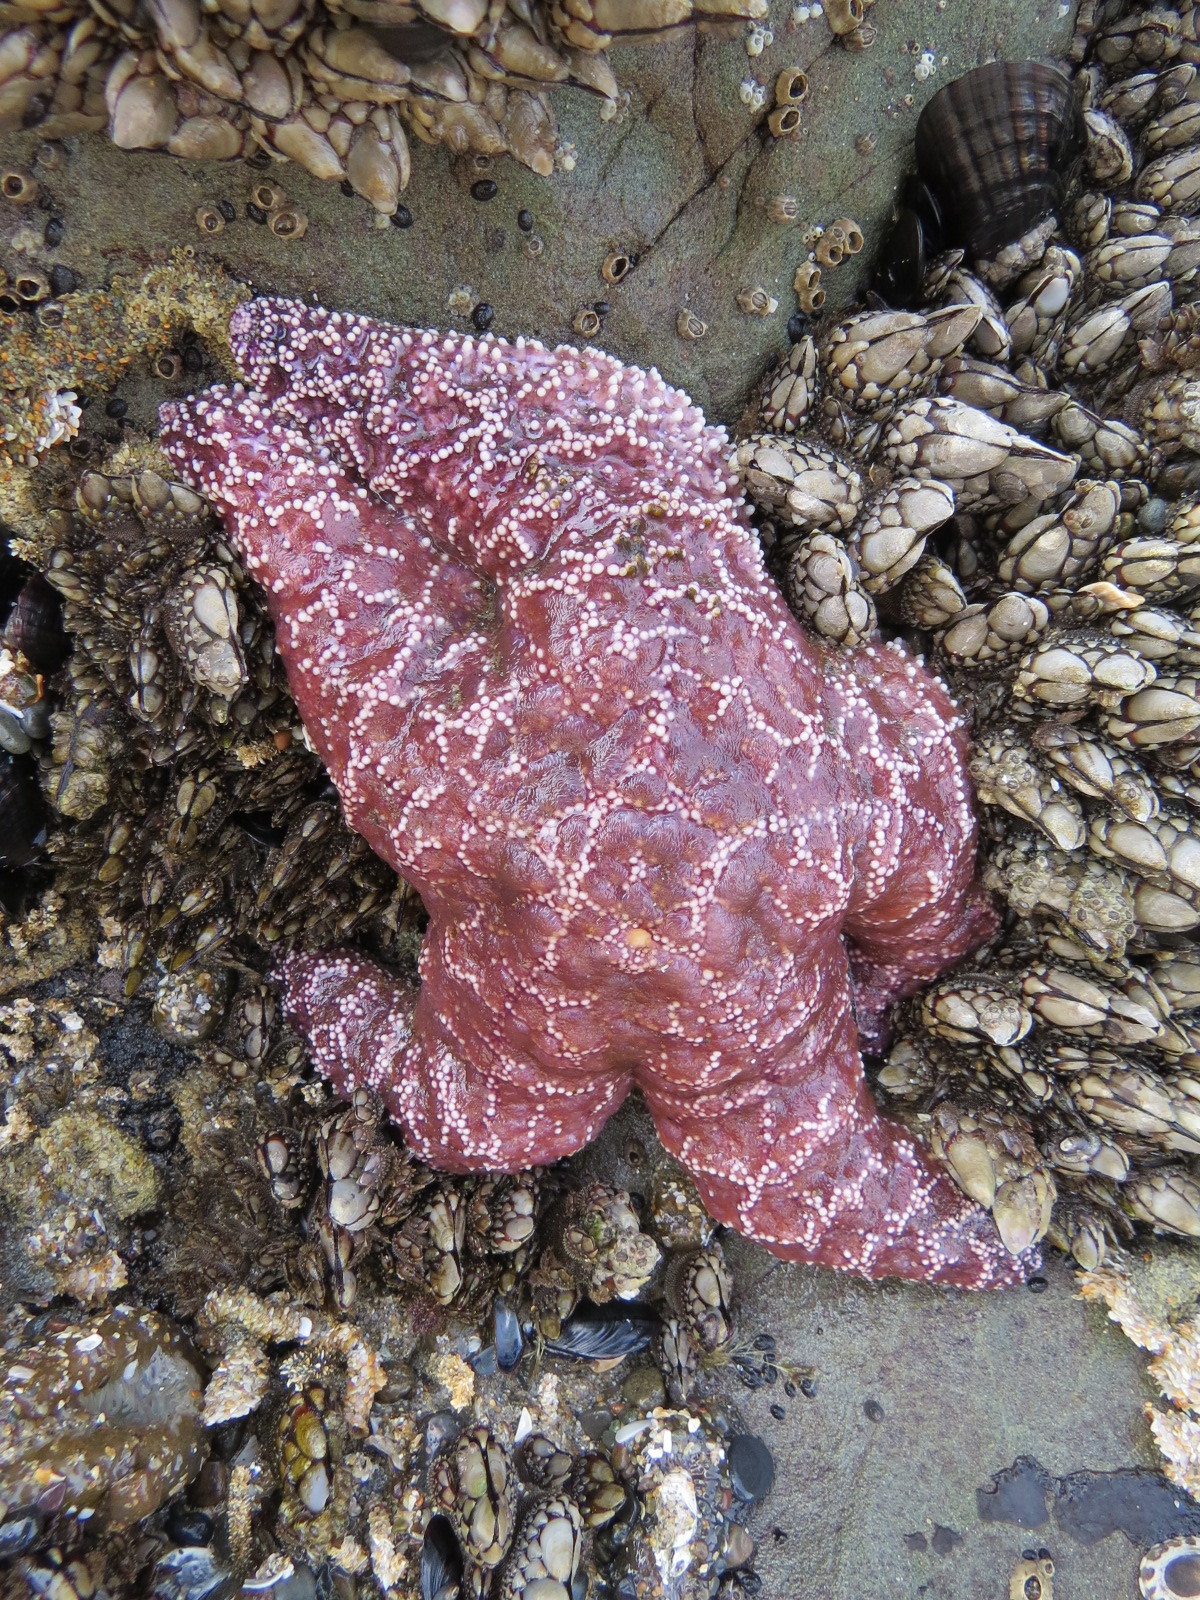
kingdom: Animalia
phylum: Echinodermata
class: Asteroidea
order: Forcipulatida
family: Asteriidae
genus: Pisaster
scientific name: Pisaster ochraceus
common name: Ochre stars
